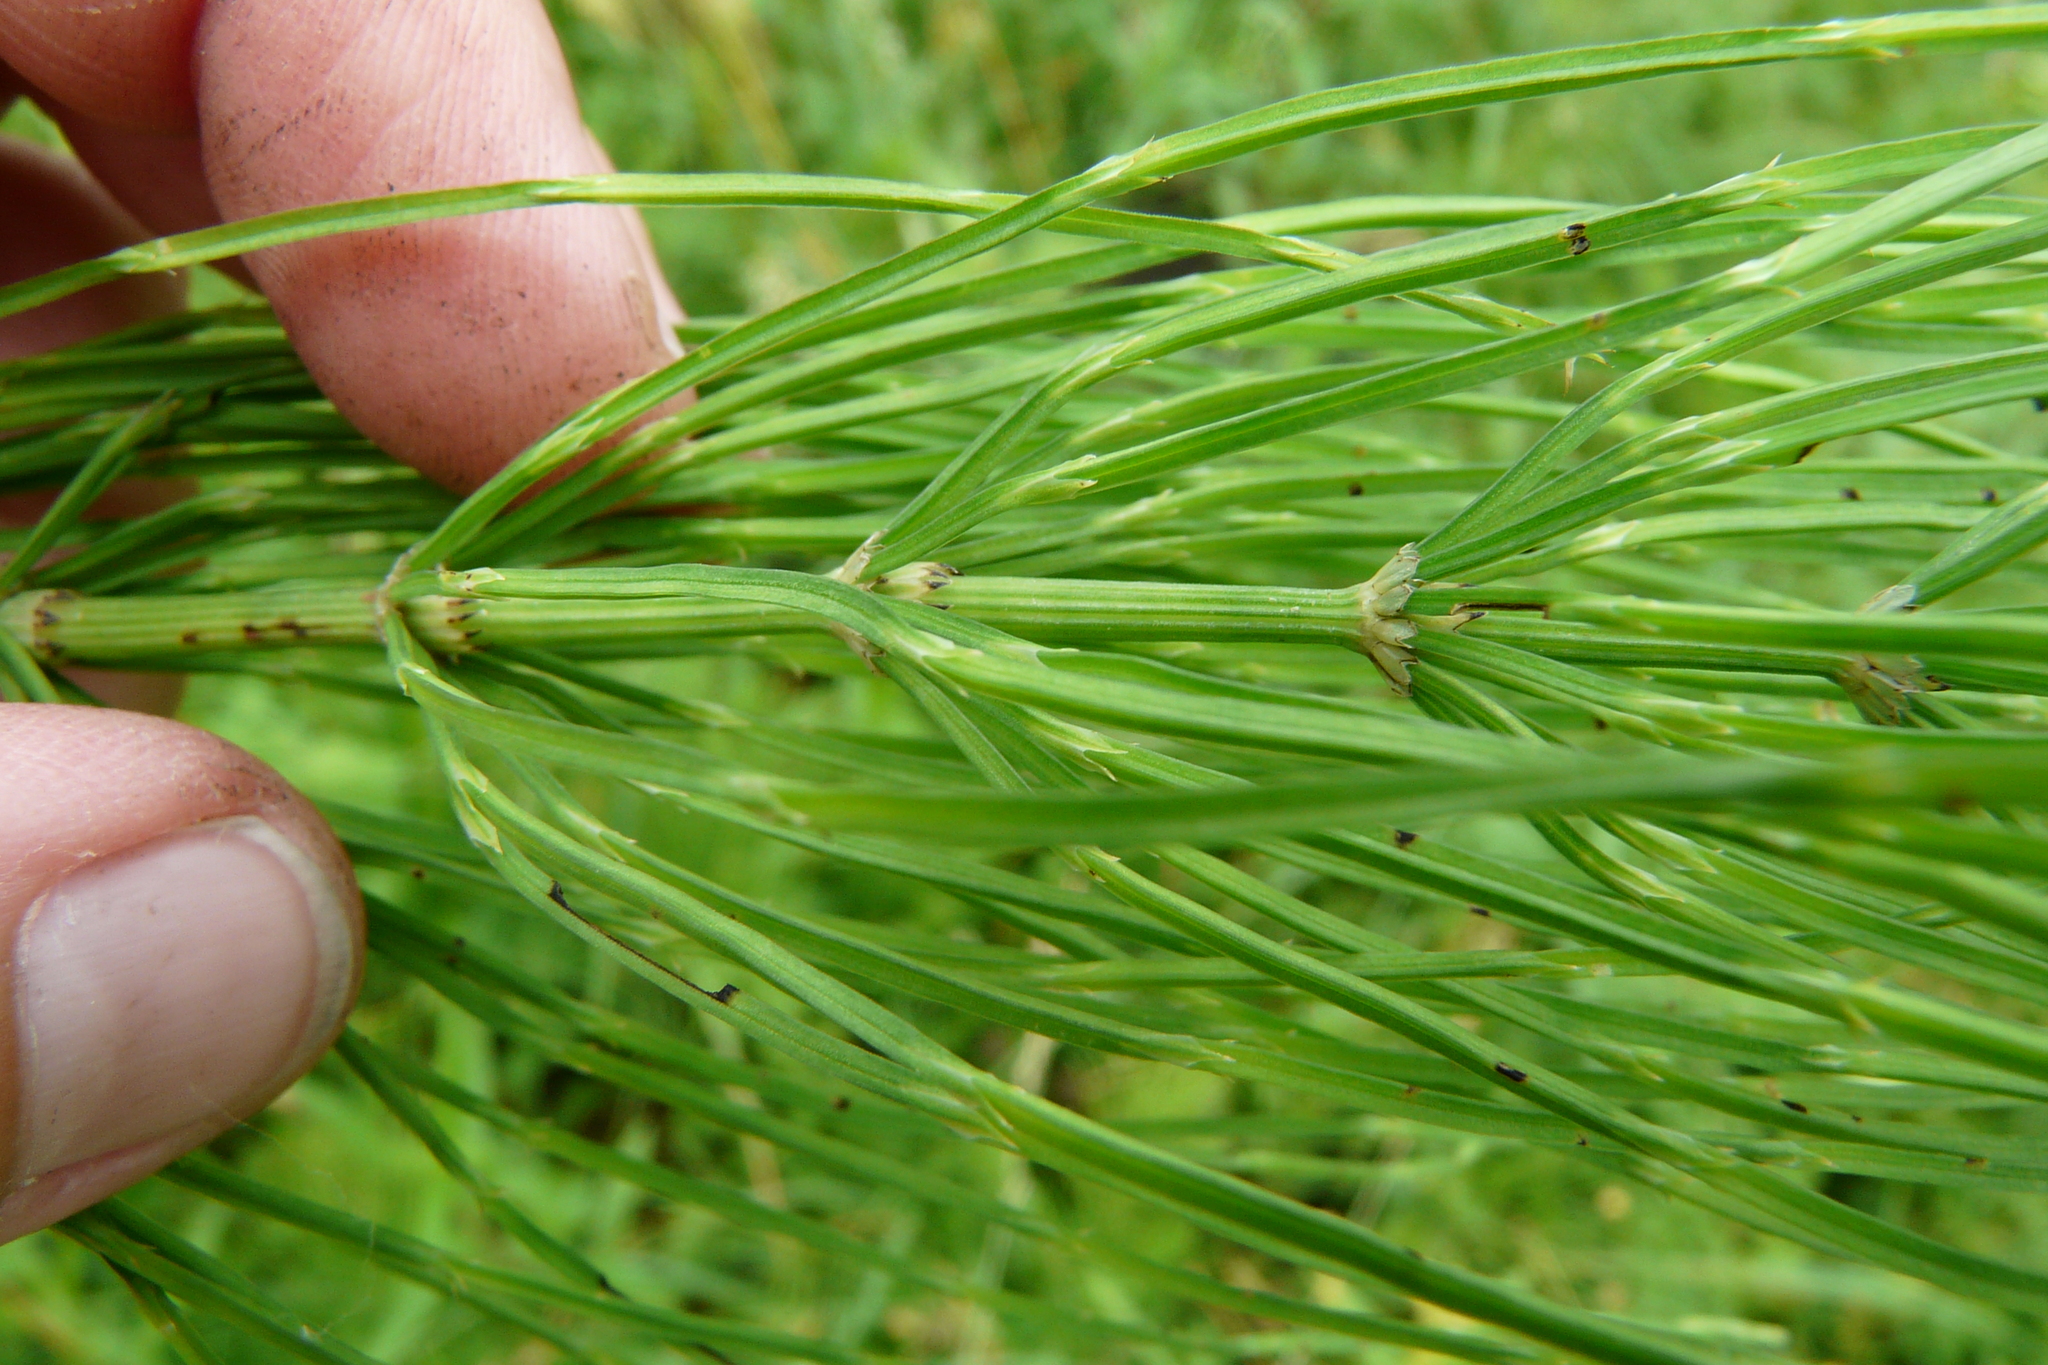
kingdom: Plantae
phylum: Tracheophyta
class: Polypodiopsida
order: Equisetales
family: Equisetaceae
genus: Equisetum
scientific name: Equisetum arvense
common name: Field horsetail
